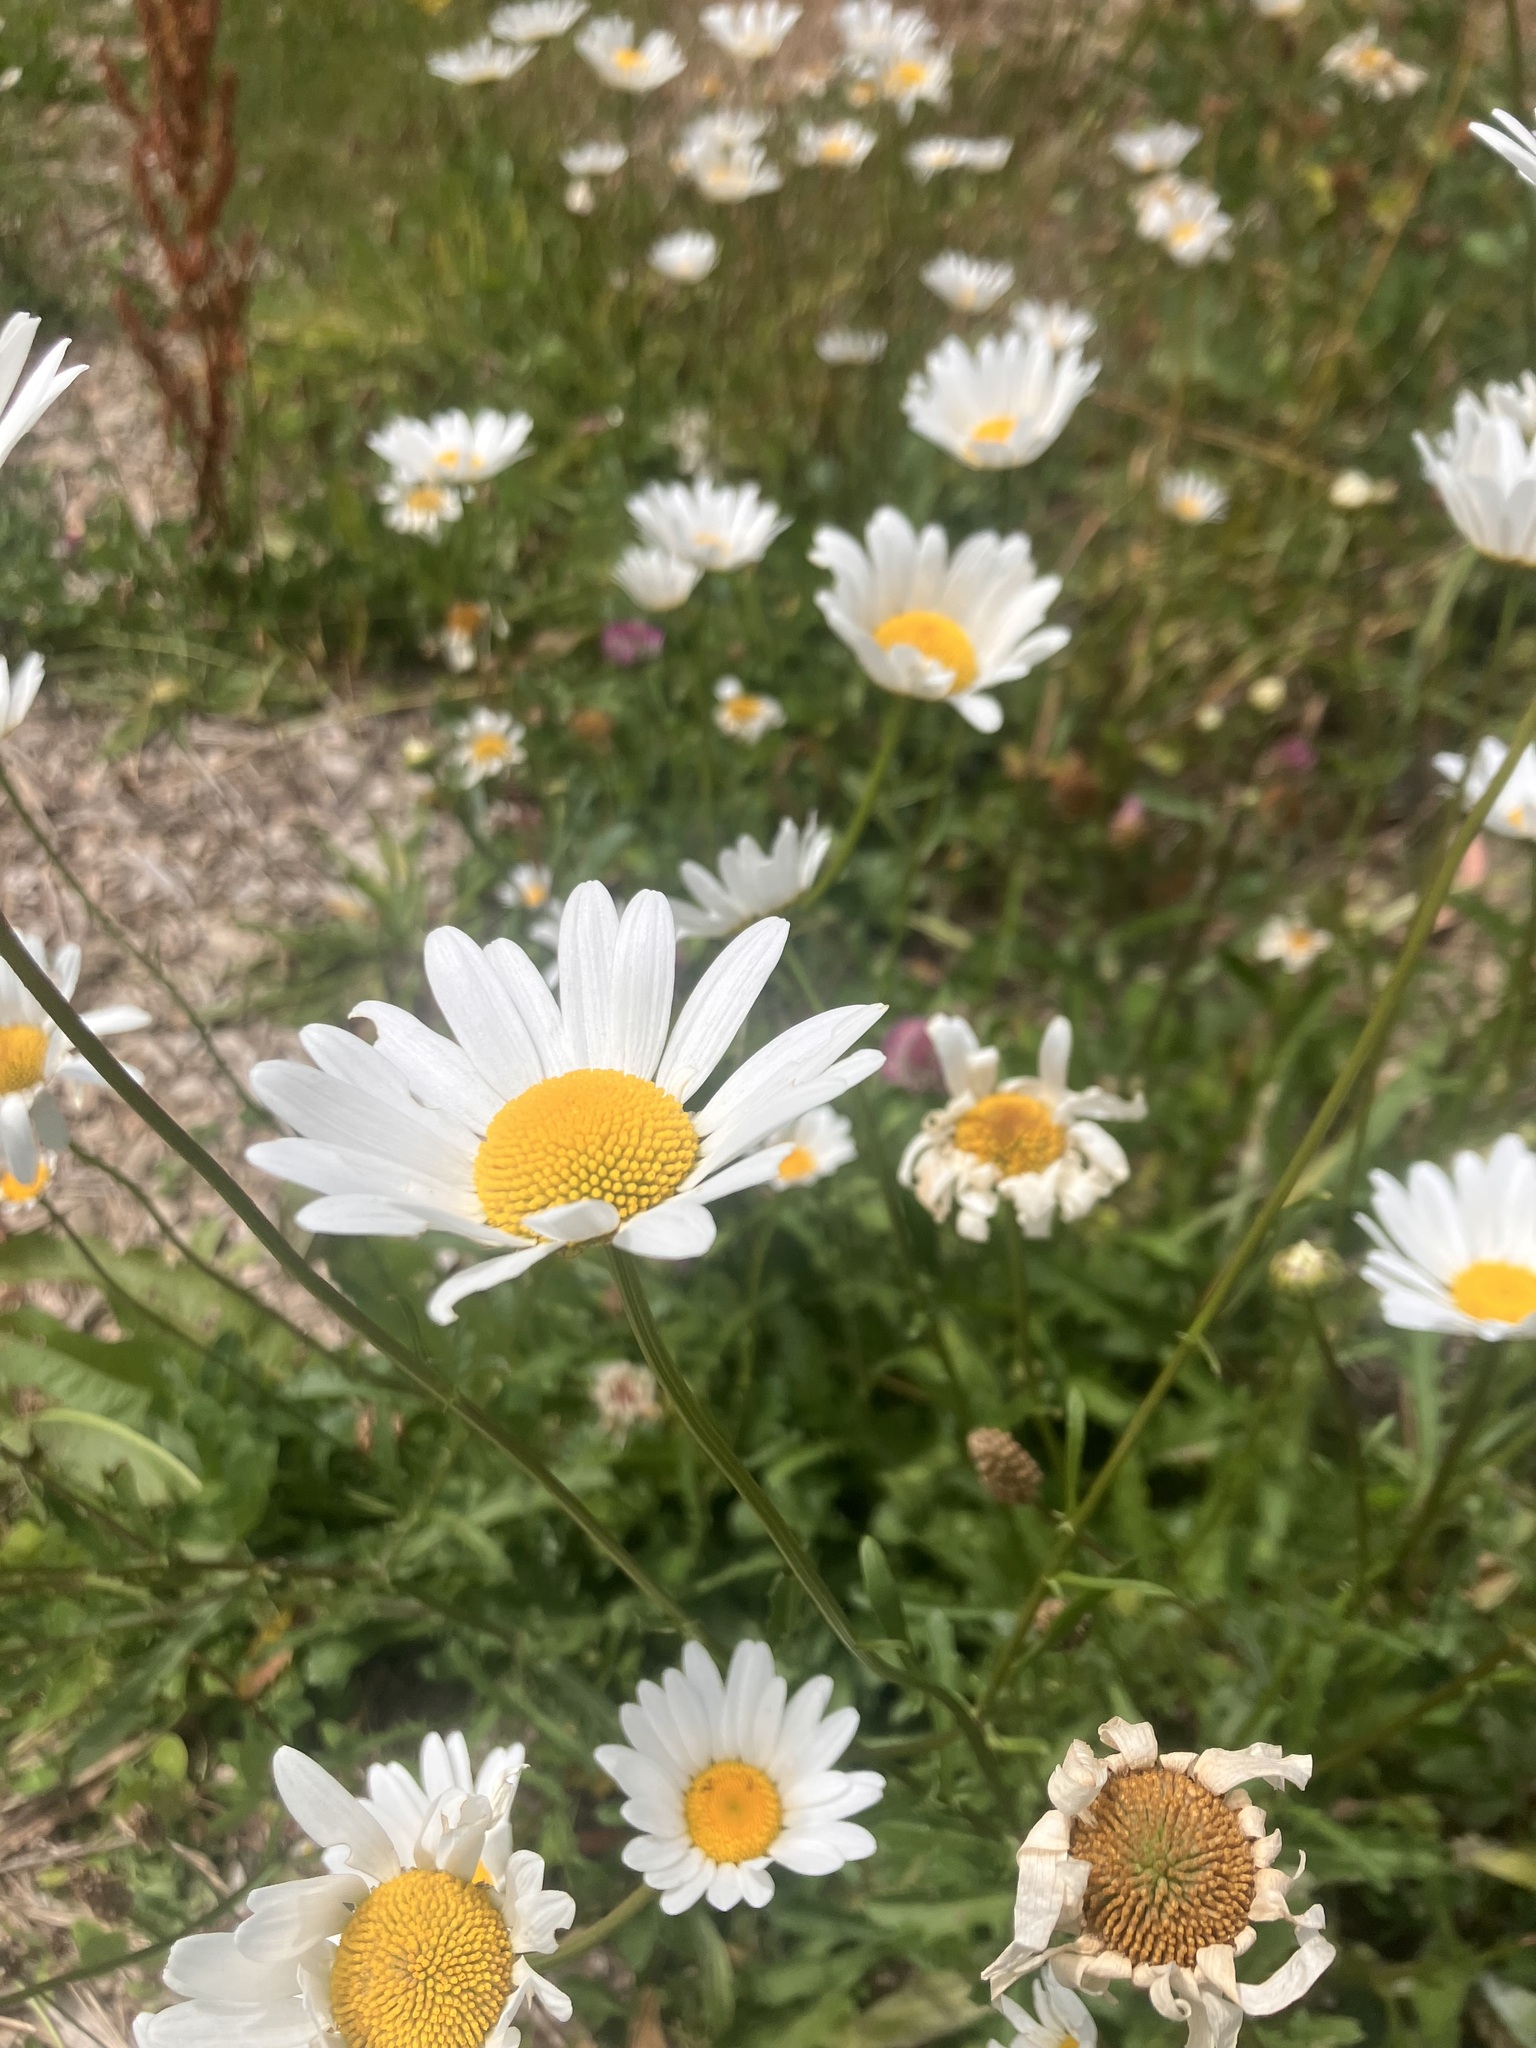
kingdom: Plantae
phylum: Tracheophyta
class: Magnoliopsida
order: Asterales
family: Asteraceae
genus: Leucanthemum
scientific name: Leucanthemum vulgare
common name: Oxeye daisy
